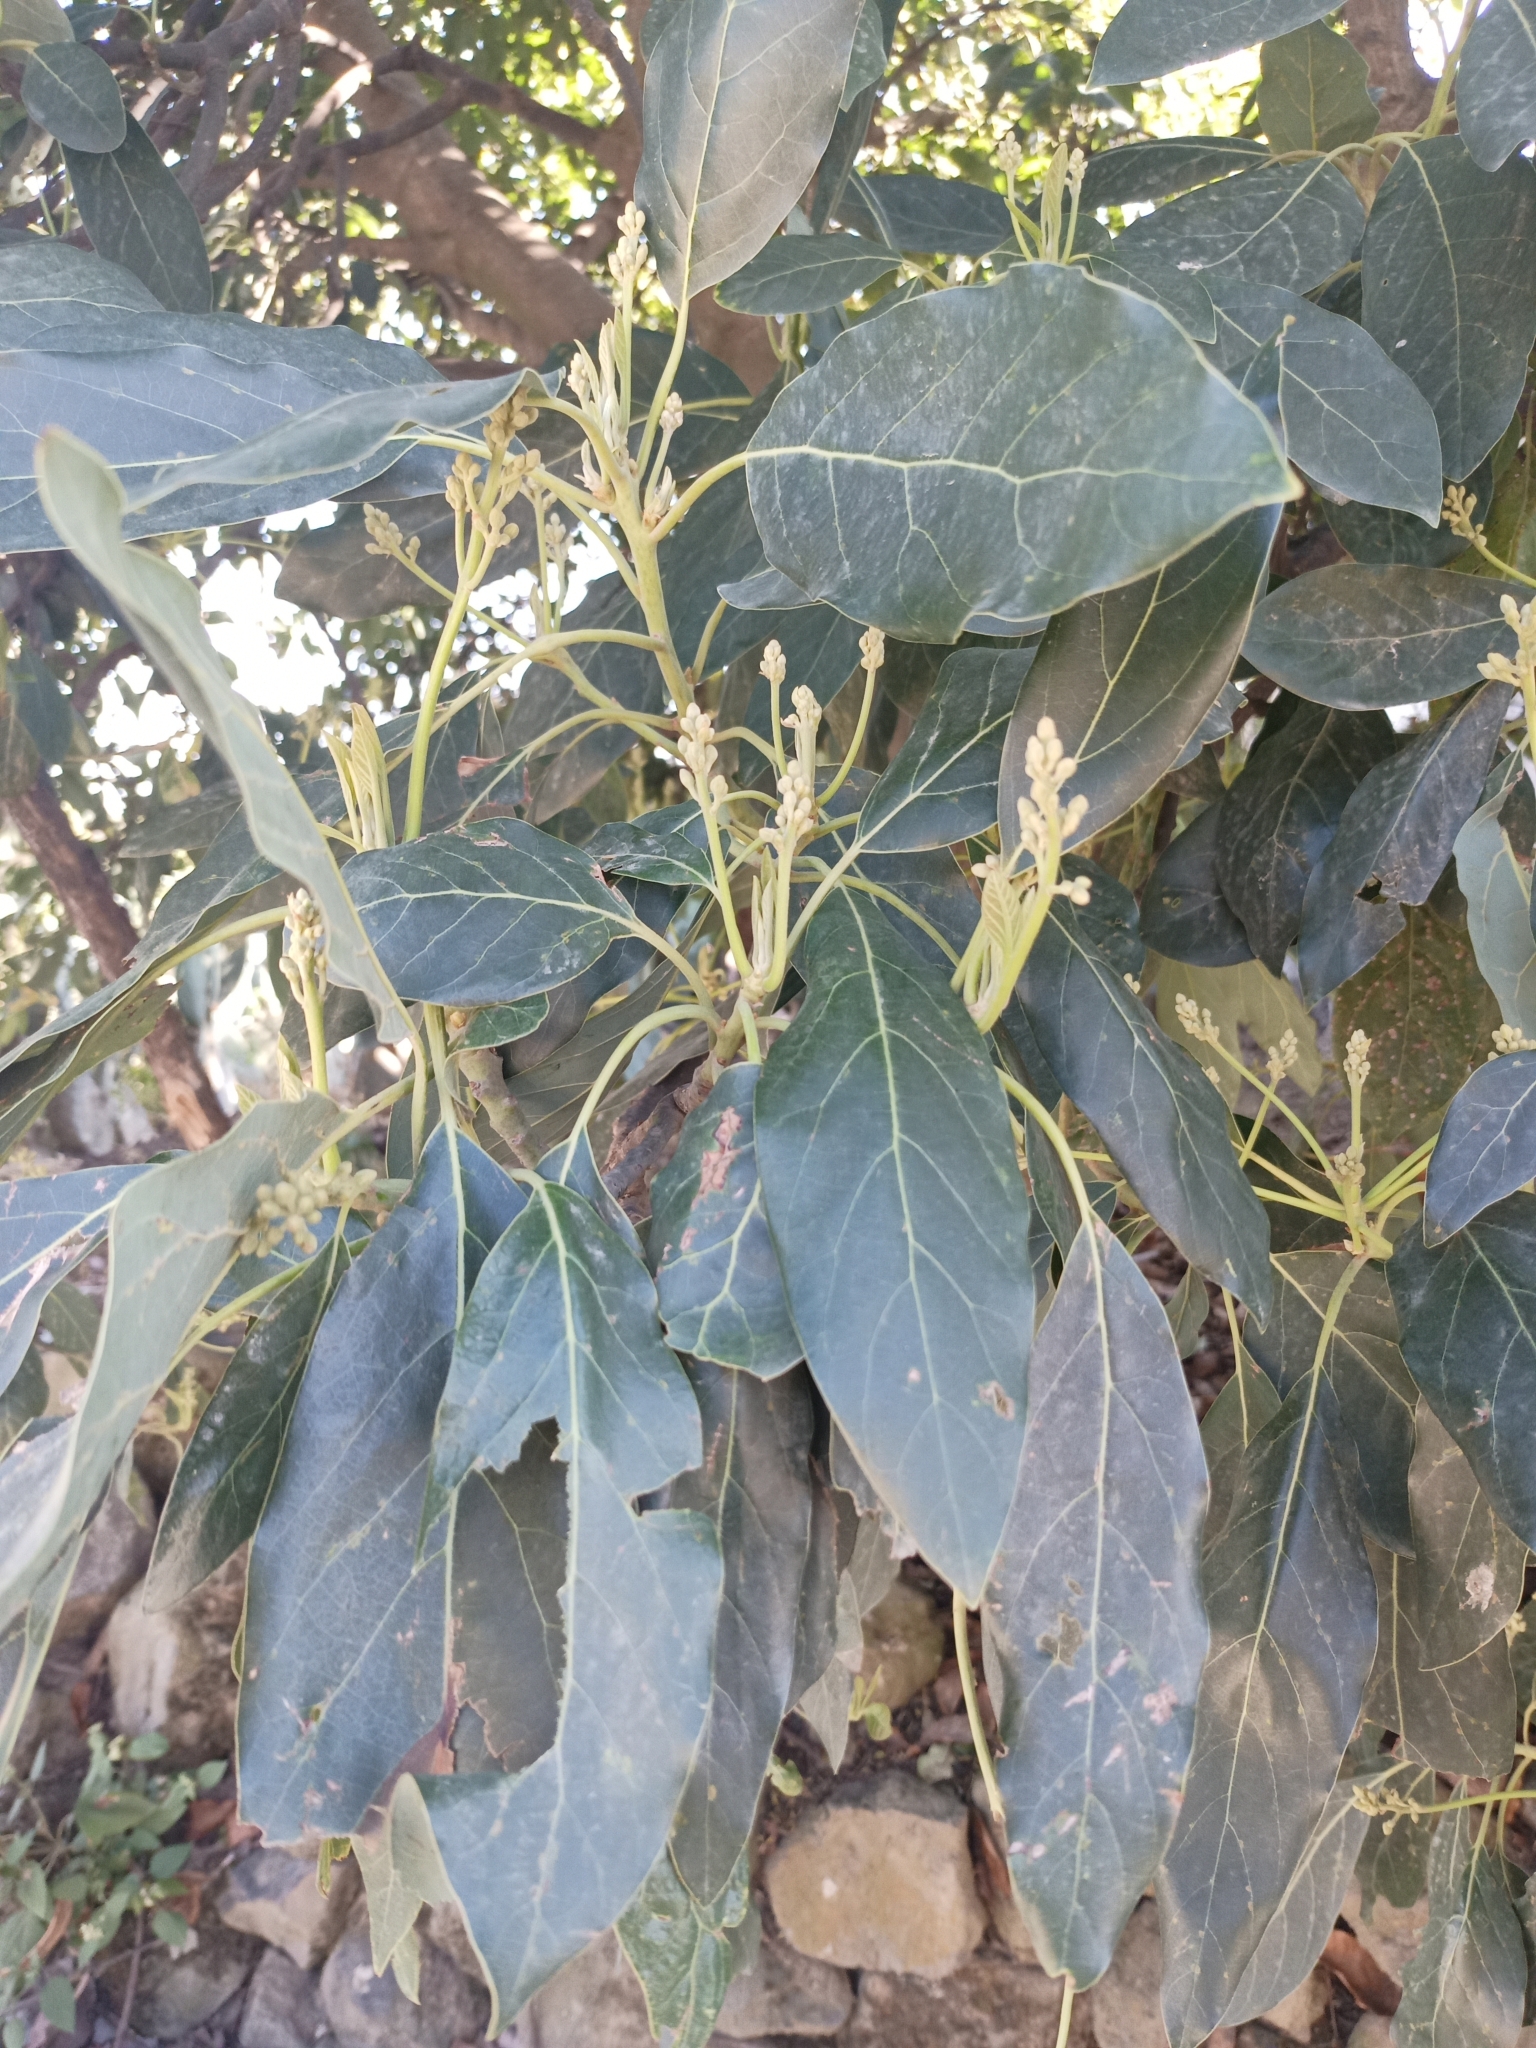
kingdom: Plantae
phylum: Tracheophyta
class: Magnoliopsida
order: Laurales
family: Lauraceae
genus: Persea
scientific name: Persea americana
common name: Avocado
